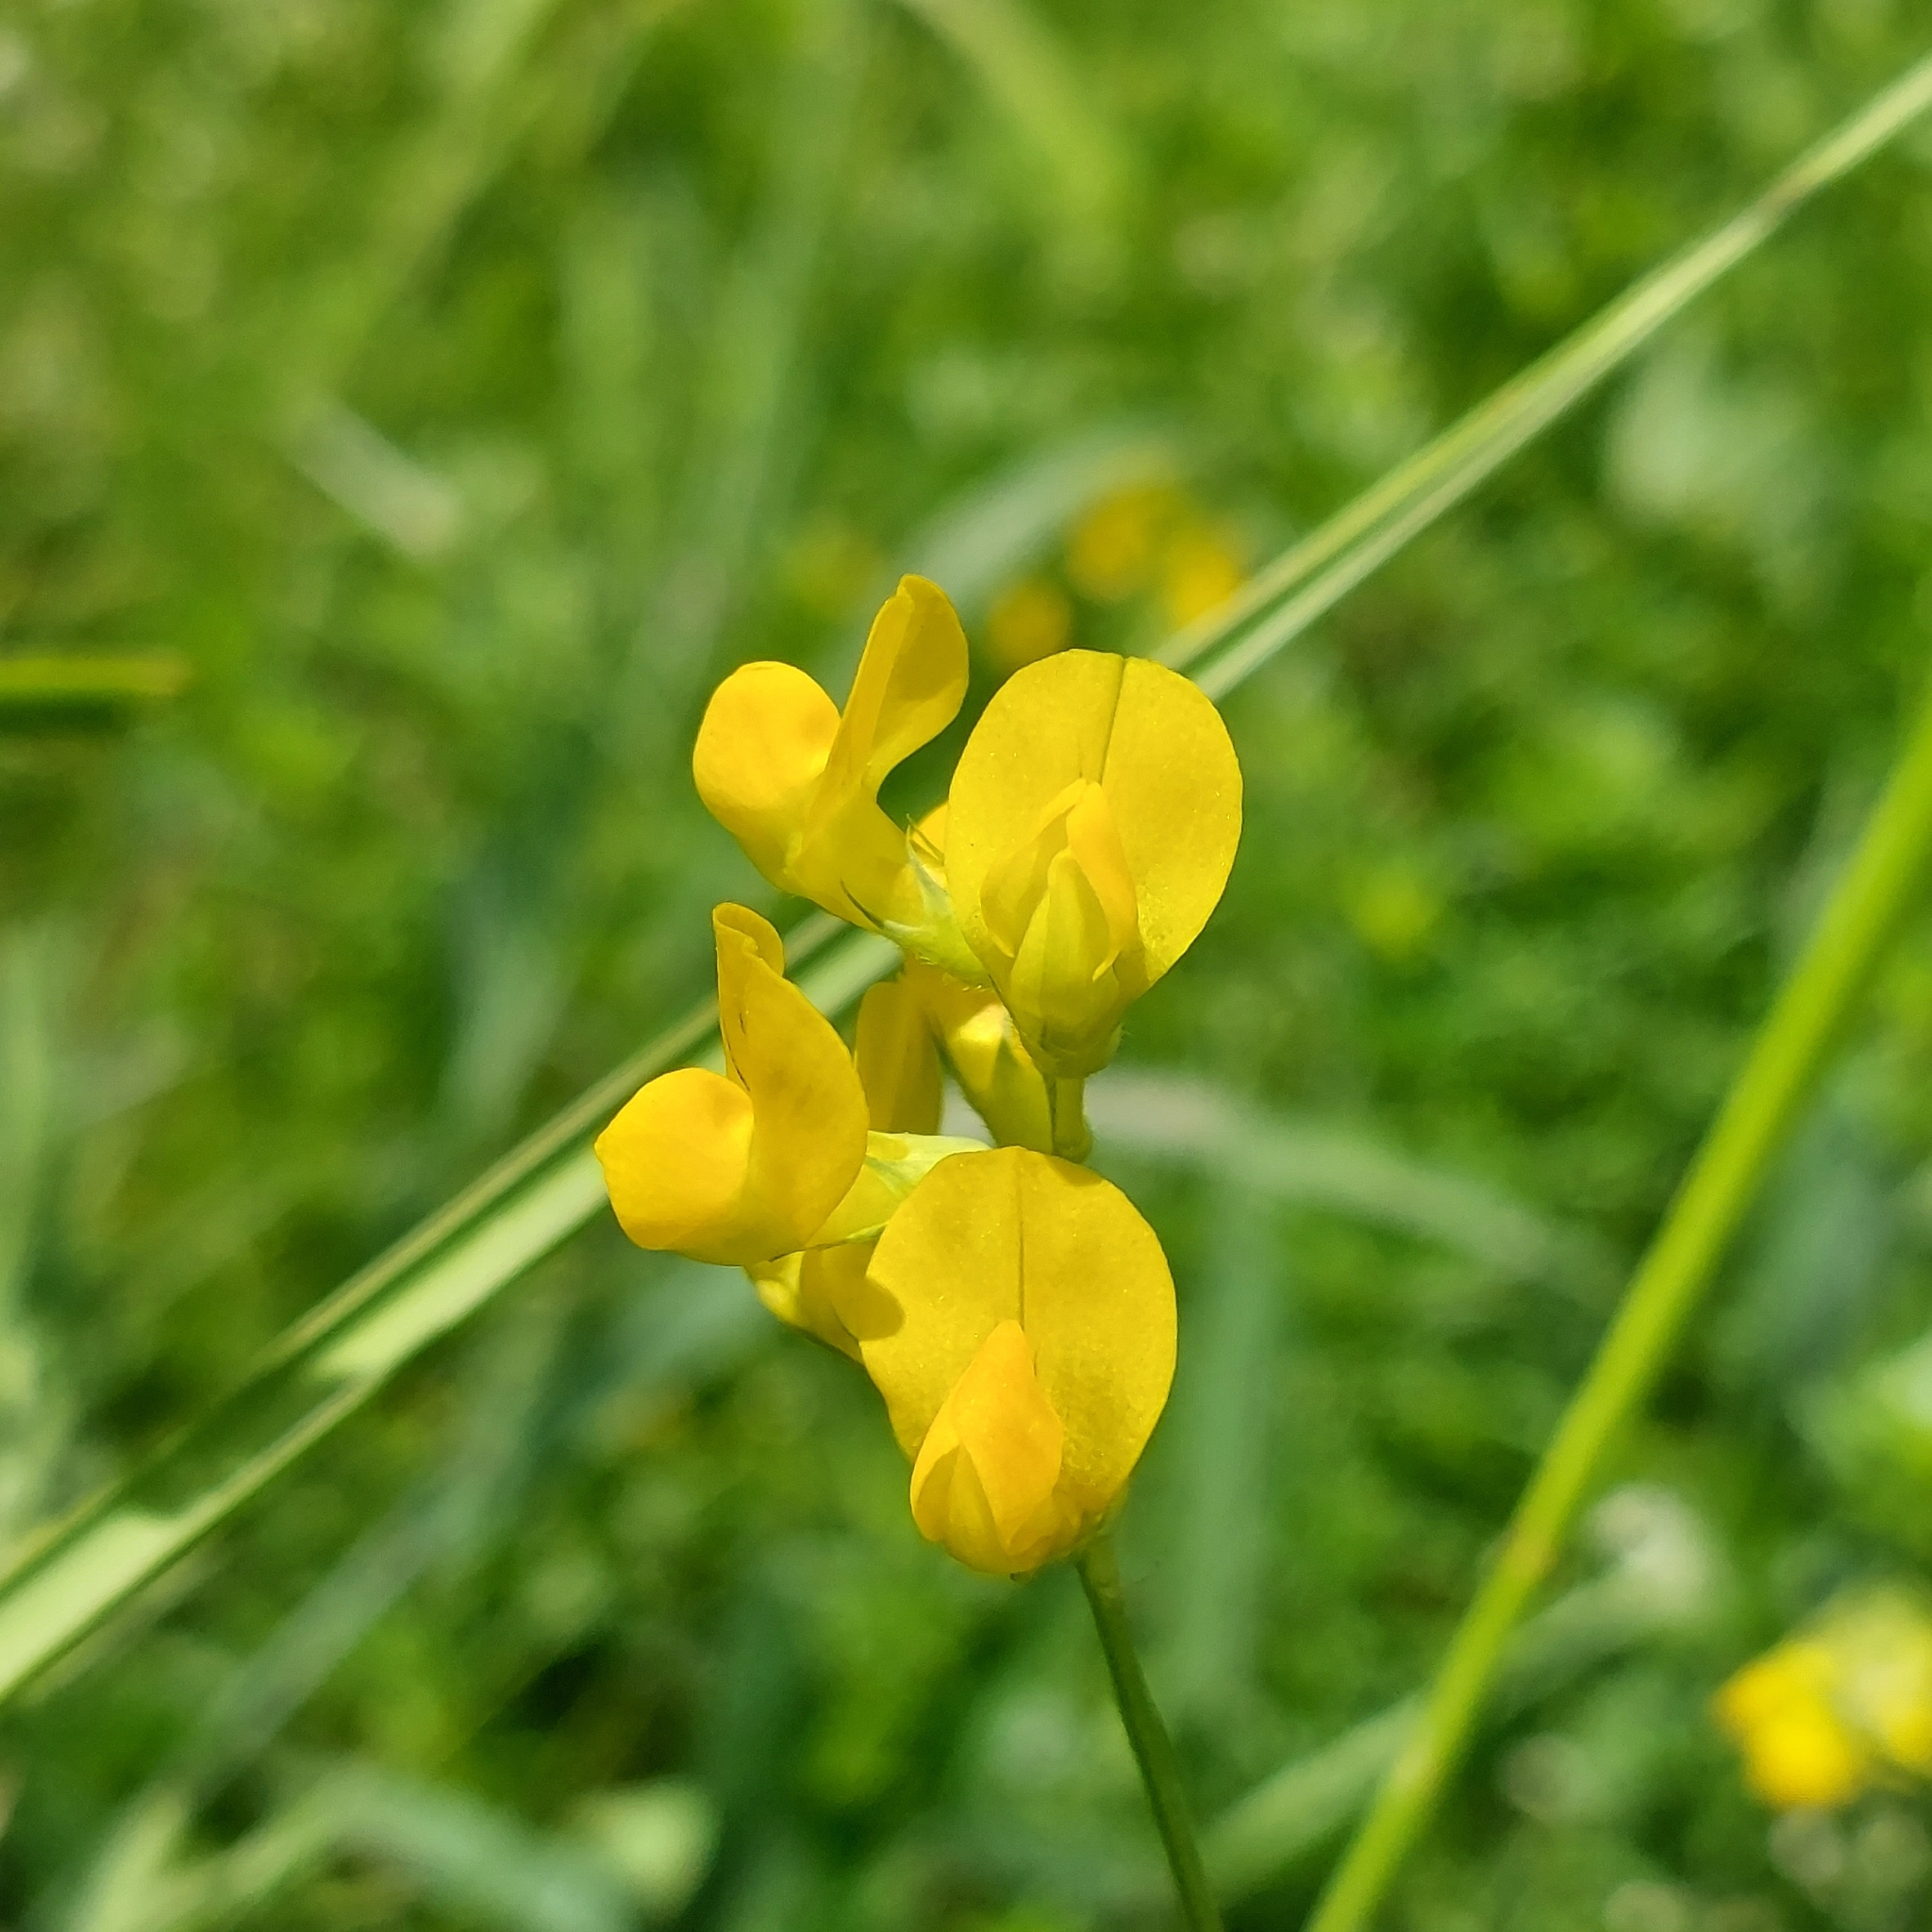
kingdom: Plantae
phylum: Tracheophyta
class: Magnoliopsida
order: Fabales
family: Fabaceae
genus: Lathyrus
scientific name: Lathyrus pratensis
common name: Meadow vetchling
